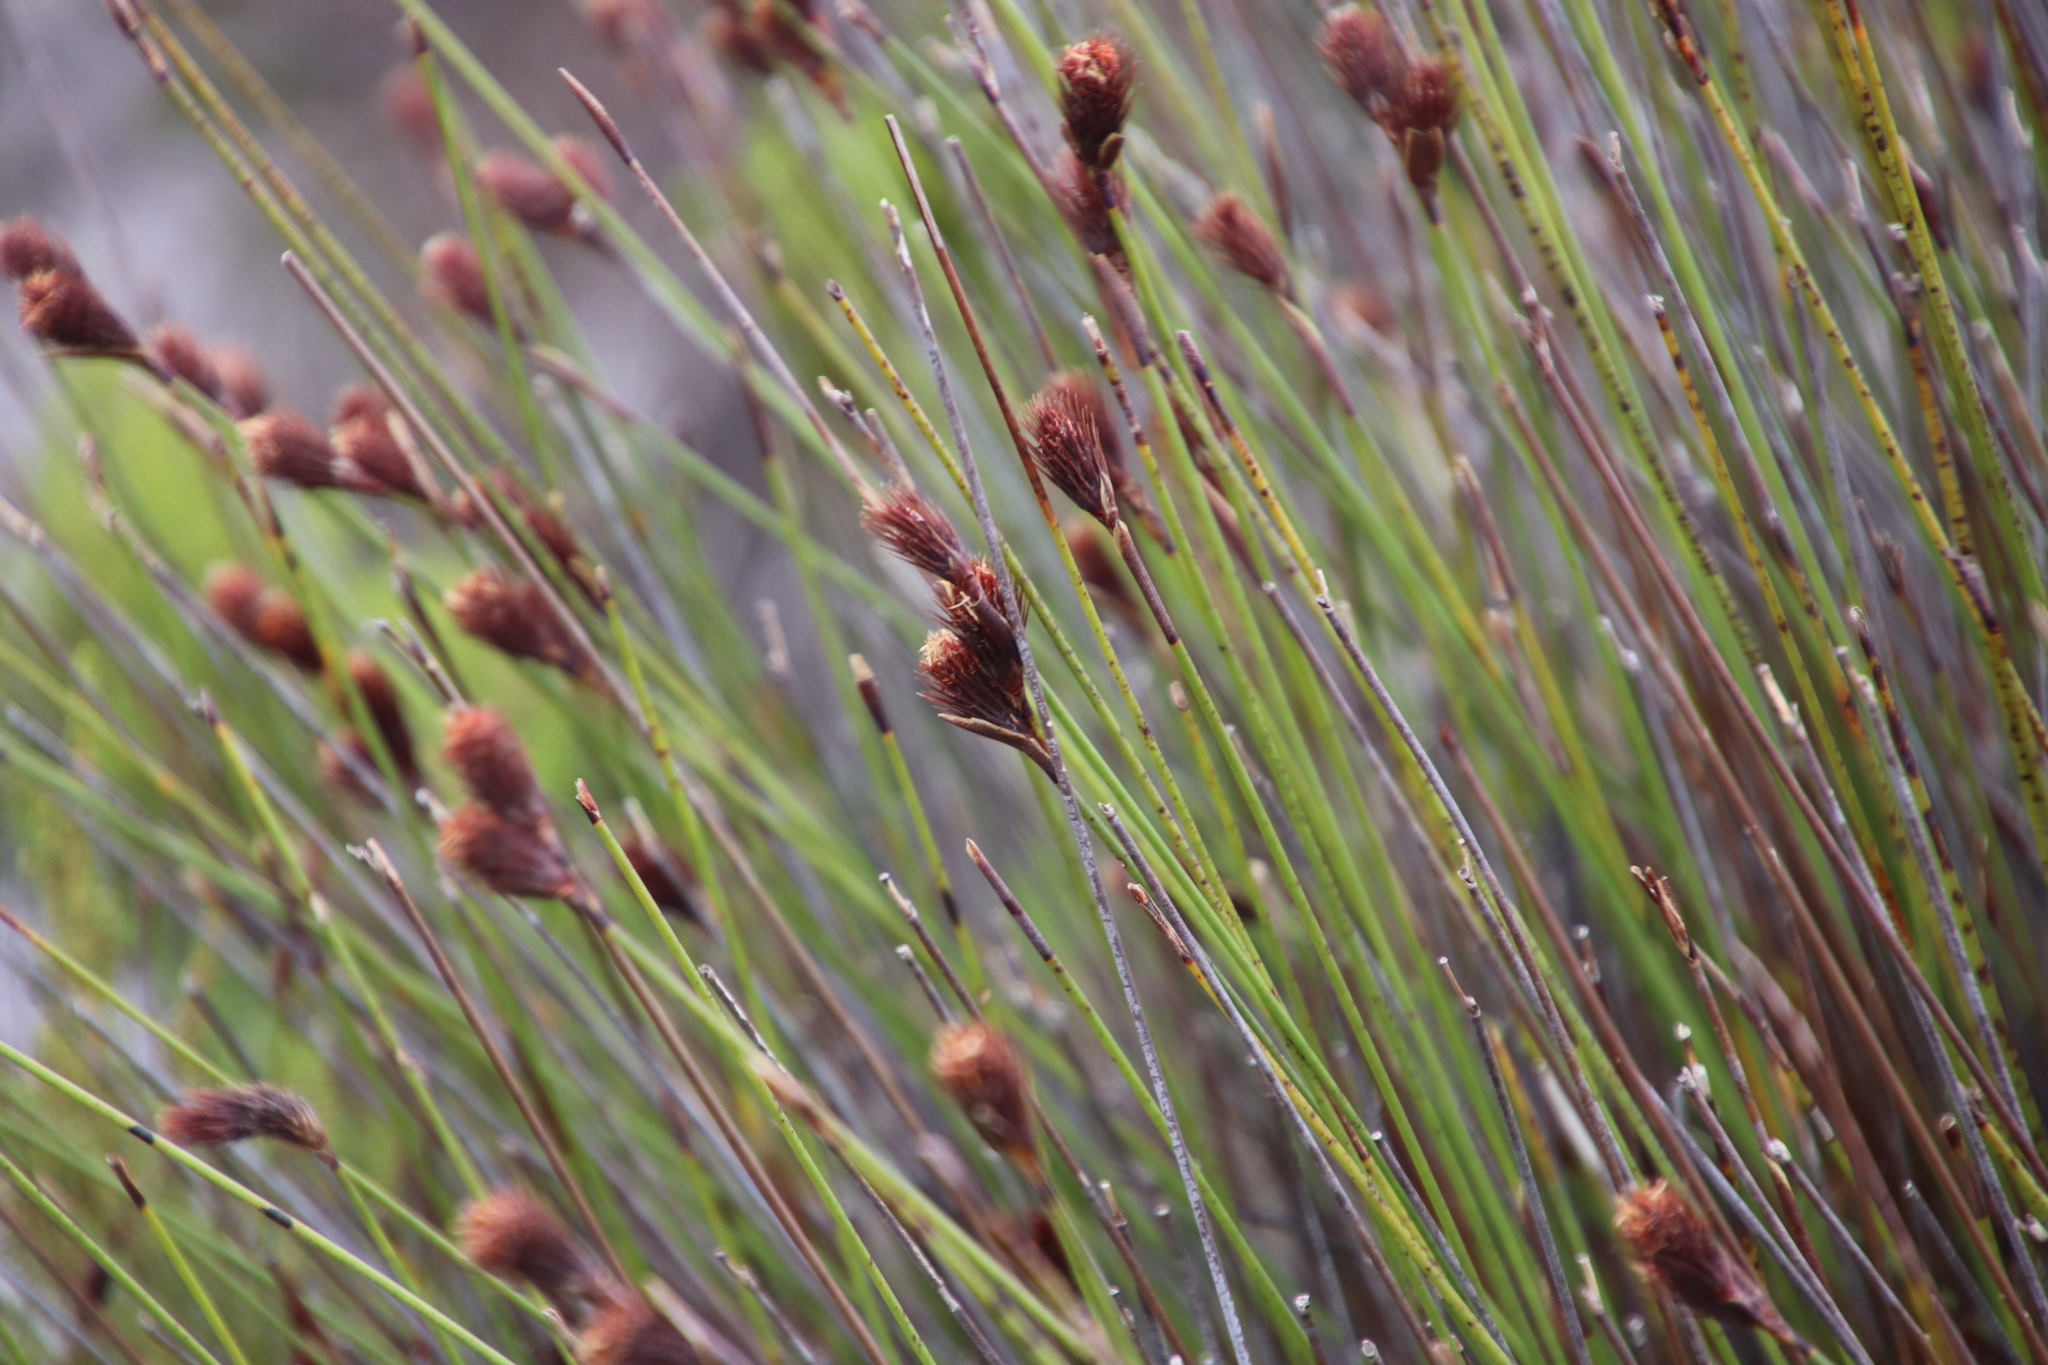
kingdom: Plantae
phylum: Tracheophyta
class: Liliopsida
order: Poales
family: Restionaceae
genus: Hypodiscus
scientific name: Hypodiscus aristatus
